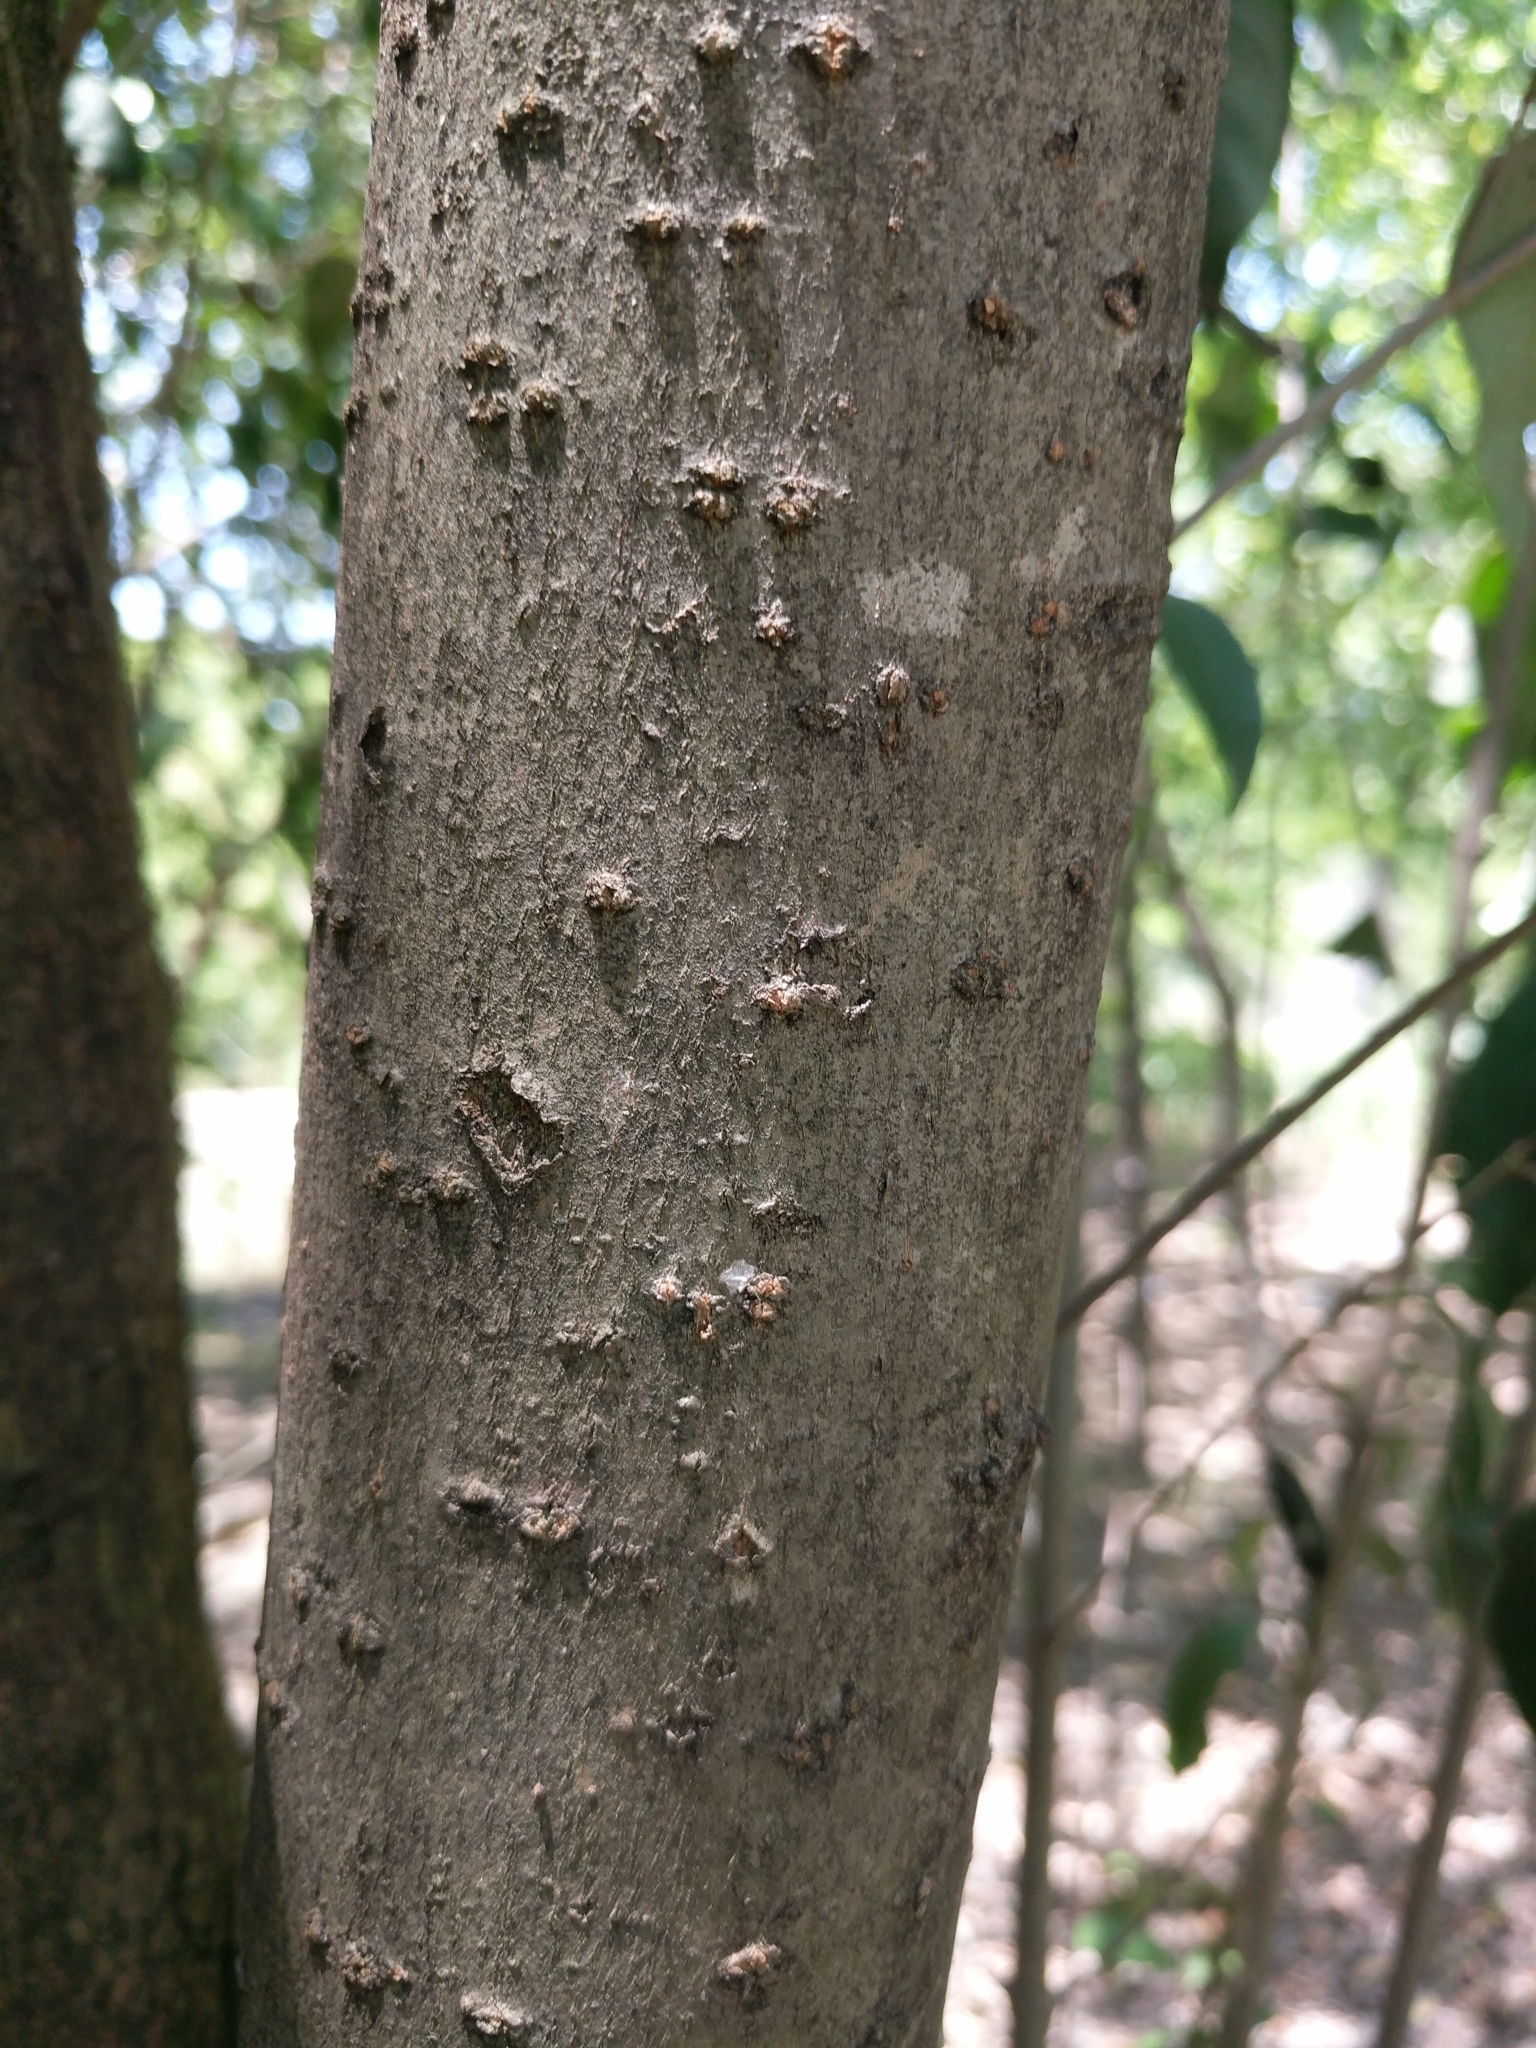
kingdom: Plantae
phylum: Tracheophyta
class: Magnoliopsida
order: Lamiales
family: Oleaceae
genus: Ligustrum
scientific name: Ligustrum lucidum
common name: Glossy privet
